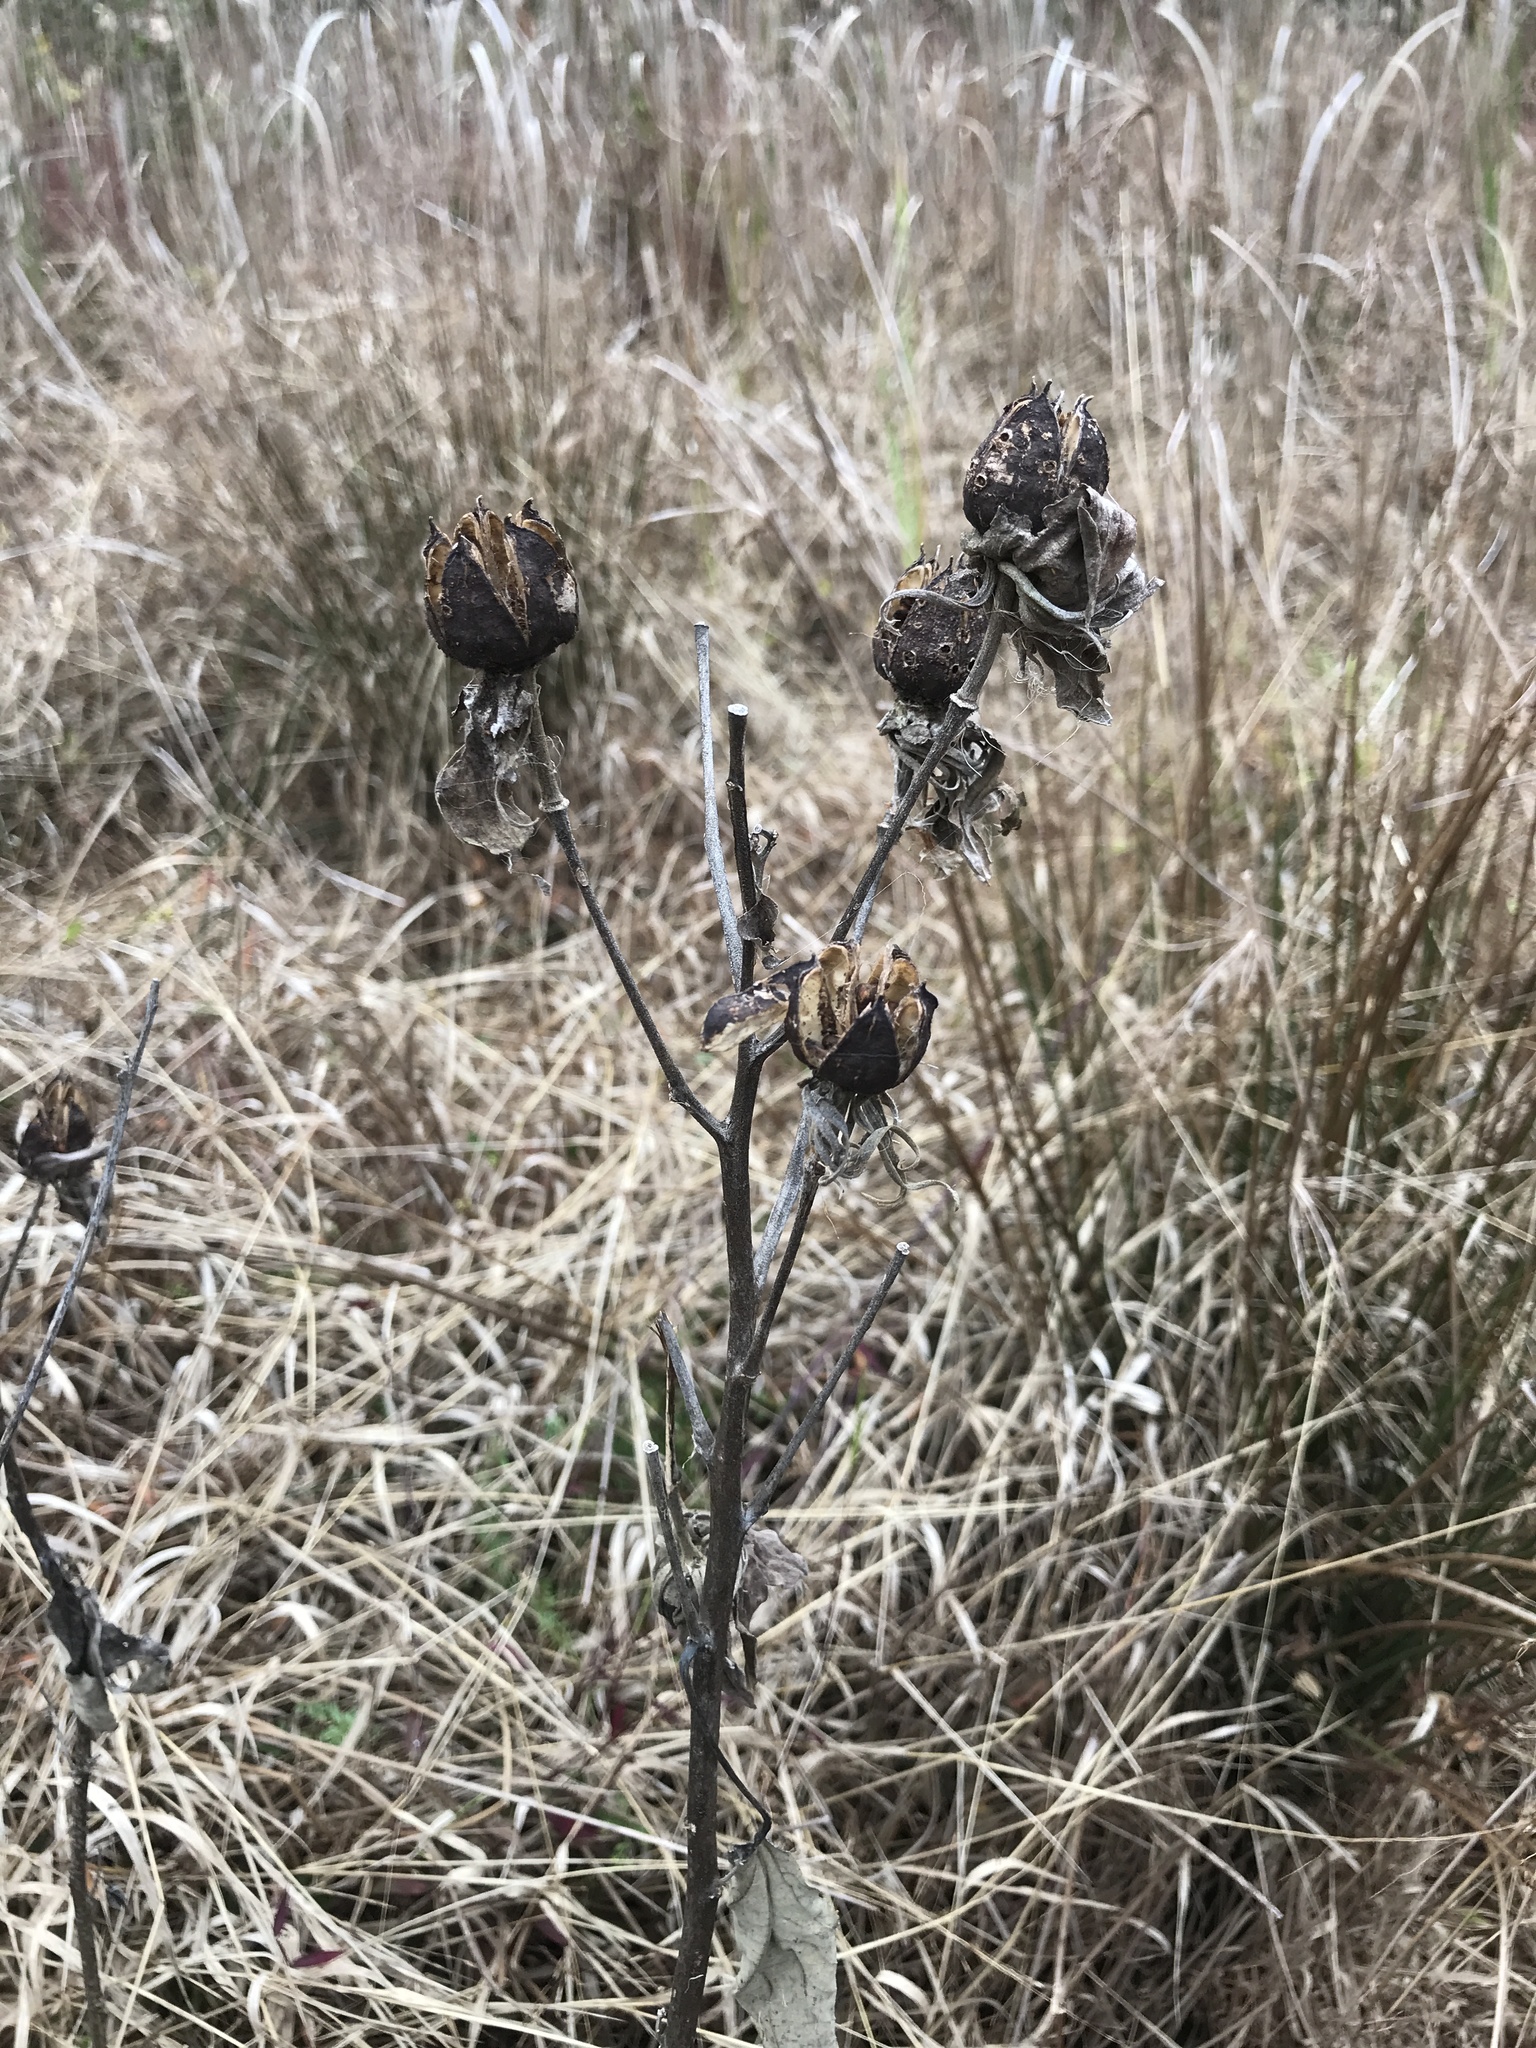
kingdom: Plantae
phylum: Tracheophyta
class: Magnoliopsida
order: Malvales
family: Malvaceae
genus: Hibiscus
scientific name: Hibiscus moscheutos
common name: Common rose-mallow
